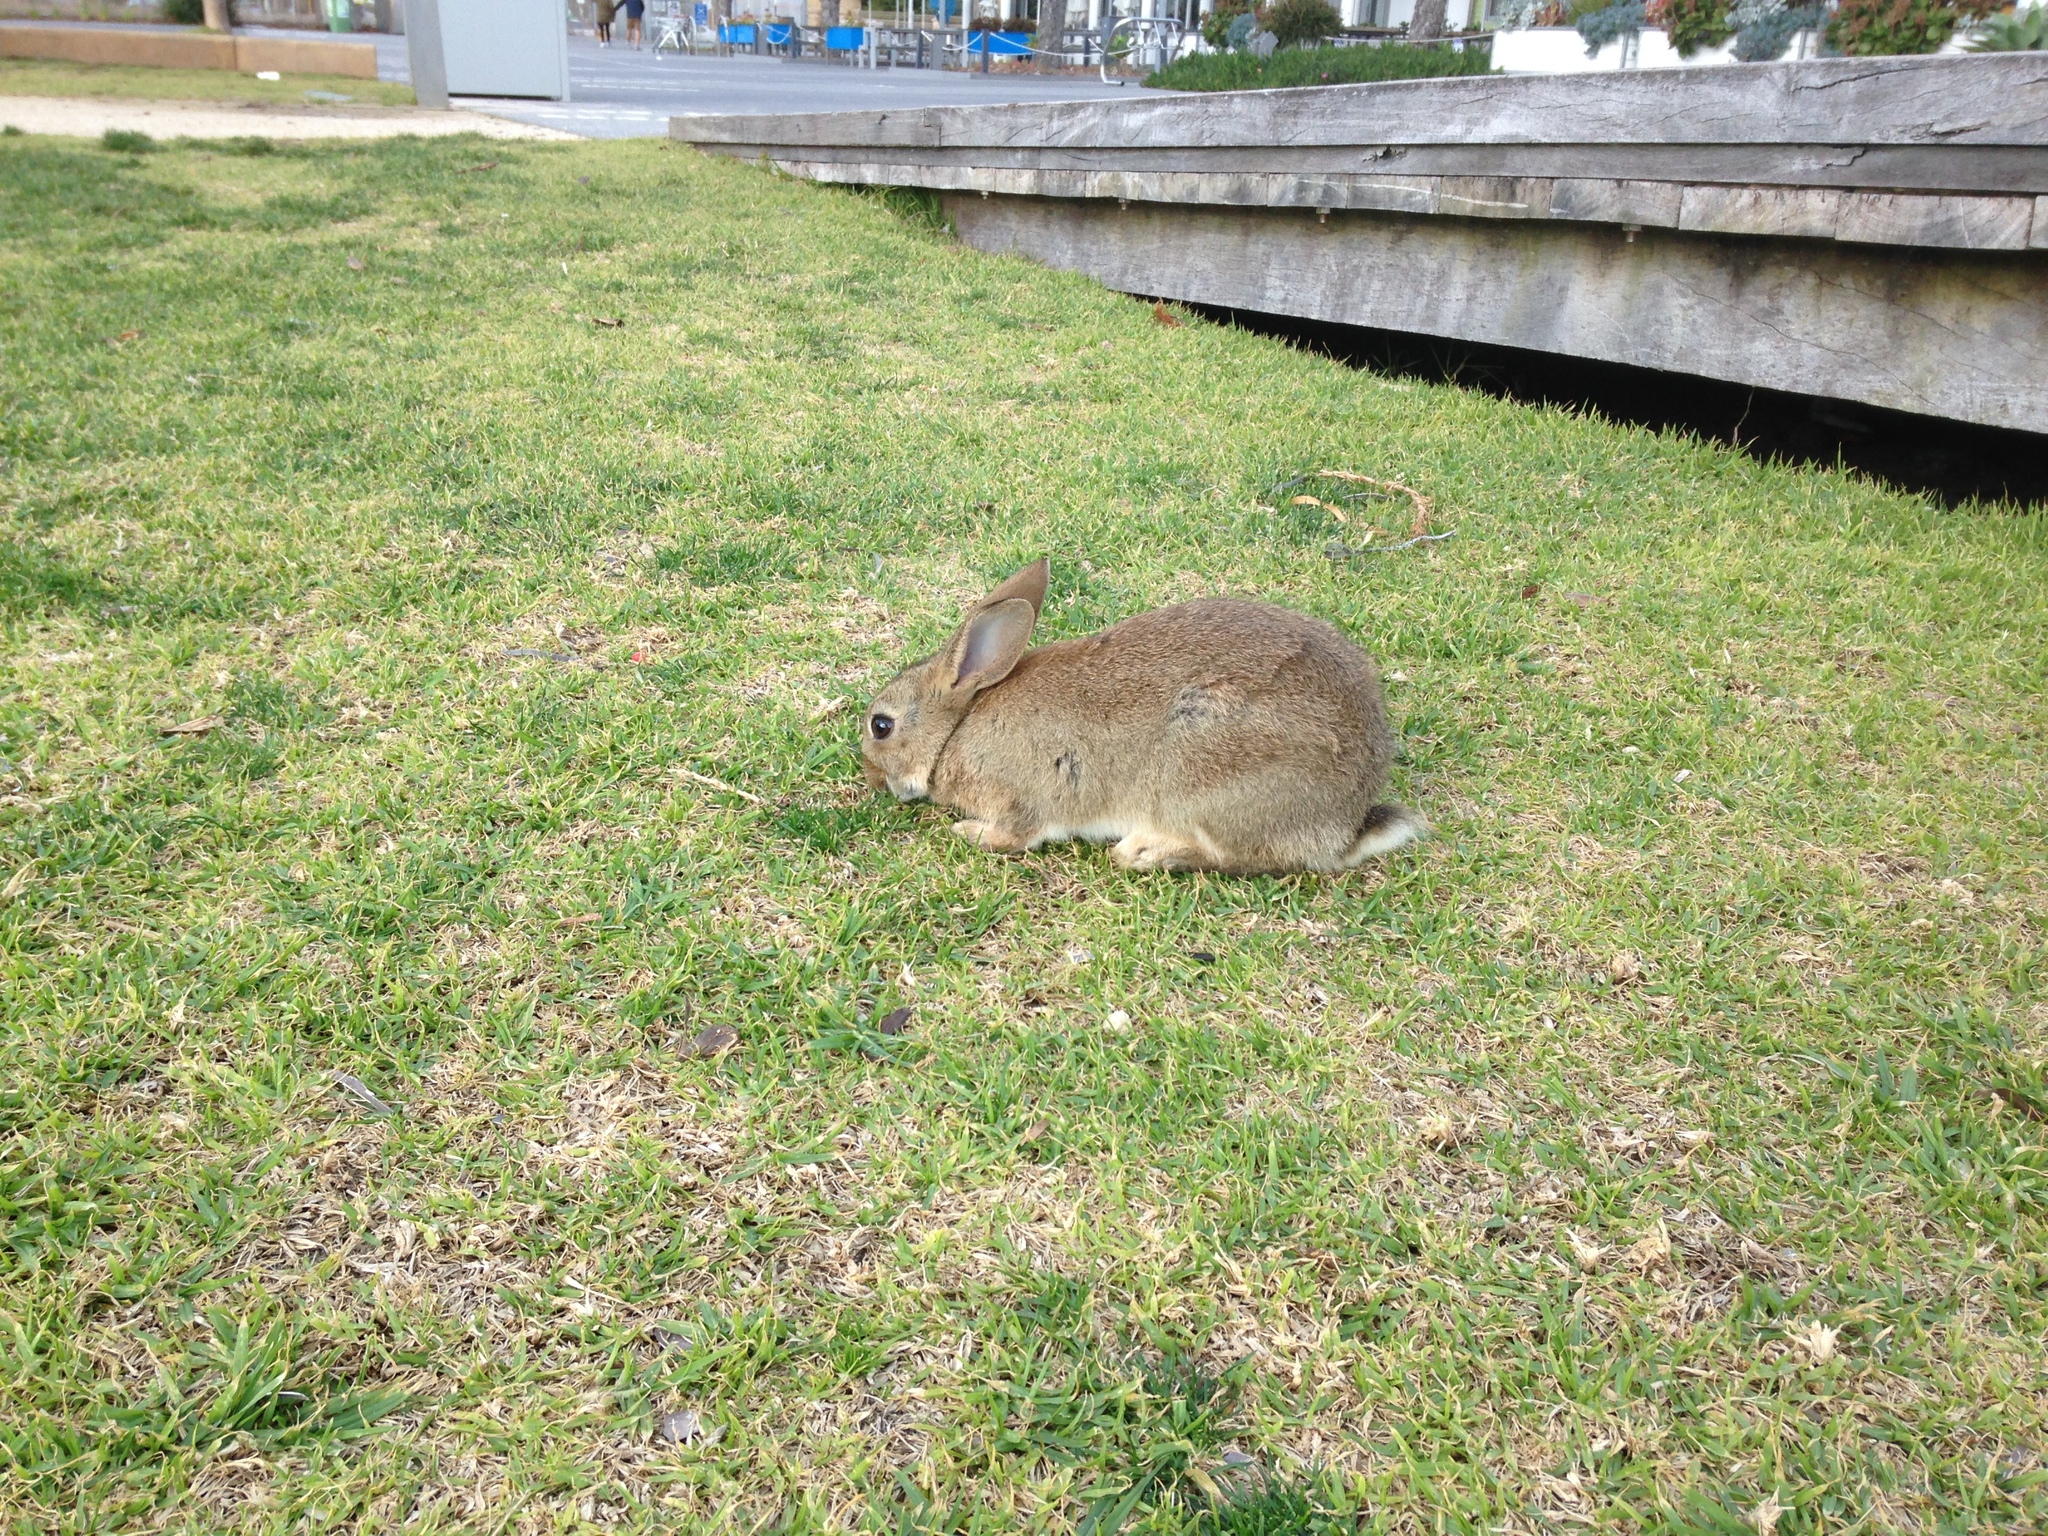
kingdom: Animalia
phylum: Chordata
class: Mammalia
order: Lagomorpha
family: Leporidae
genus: Oryctolagus
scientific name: Oryctolagus cuniculus
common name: European rabbit
